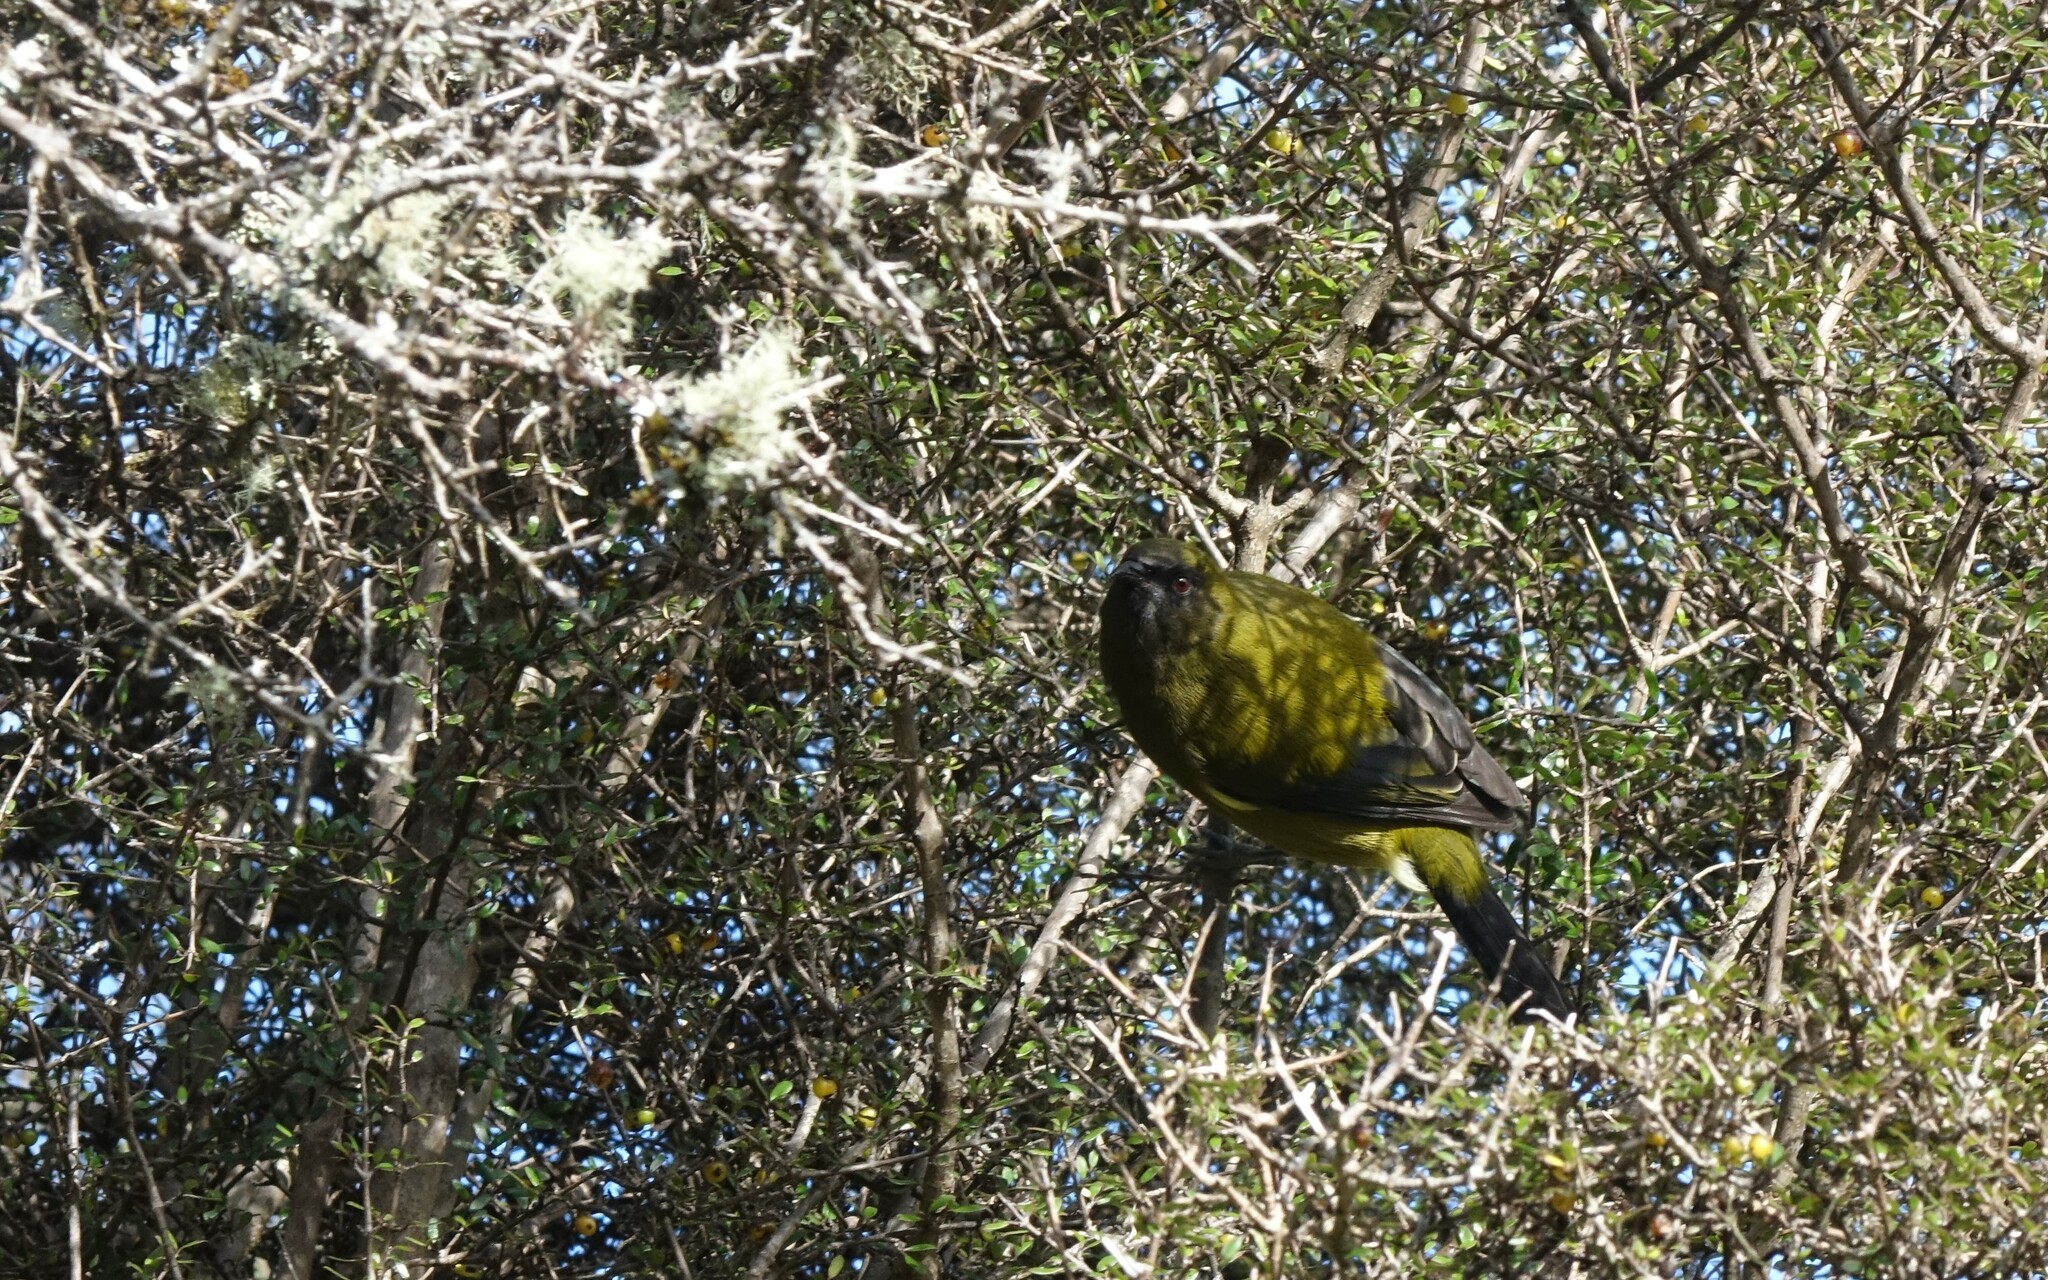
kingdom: Animalia
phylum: Chordata
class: Aves
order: Passeriformes
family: Meliphagidae
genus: Anthornis
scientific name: Anthornis melanura
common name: New zealand bellbird
